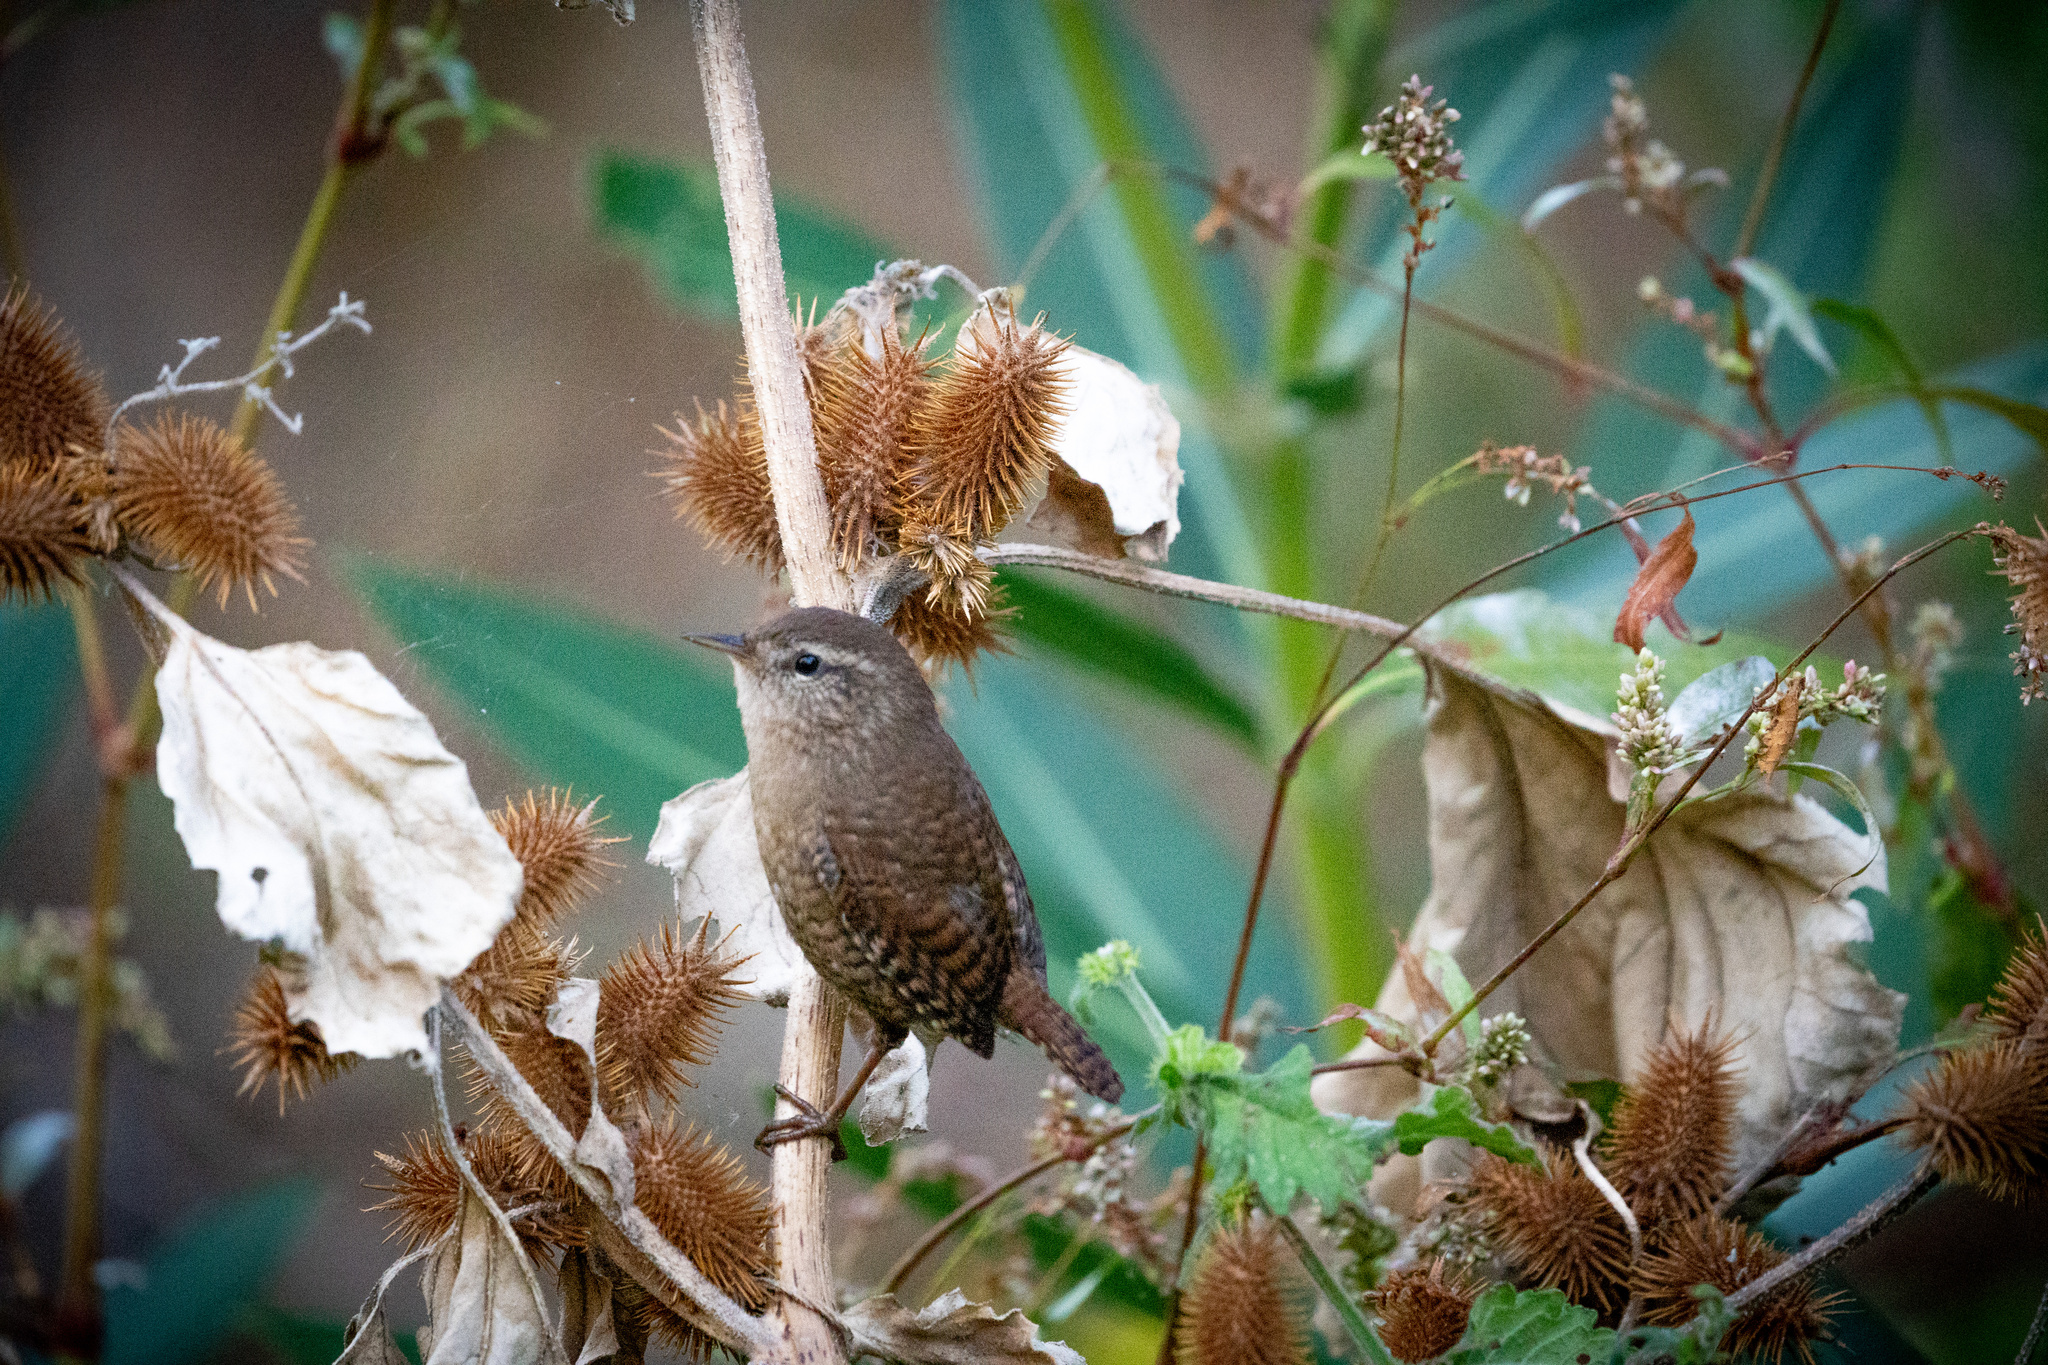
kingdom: Animalia
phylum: Chordata
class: Aves
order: Passeriformes
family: Troglodytidae
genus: Troglodytes
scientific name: Troglodytes troglodytes
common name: Eurasian wren
